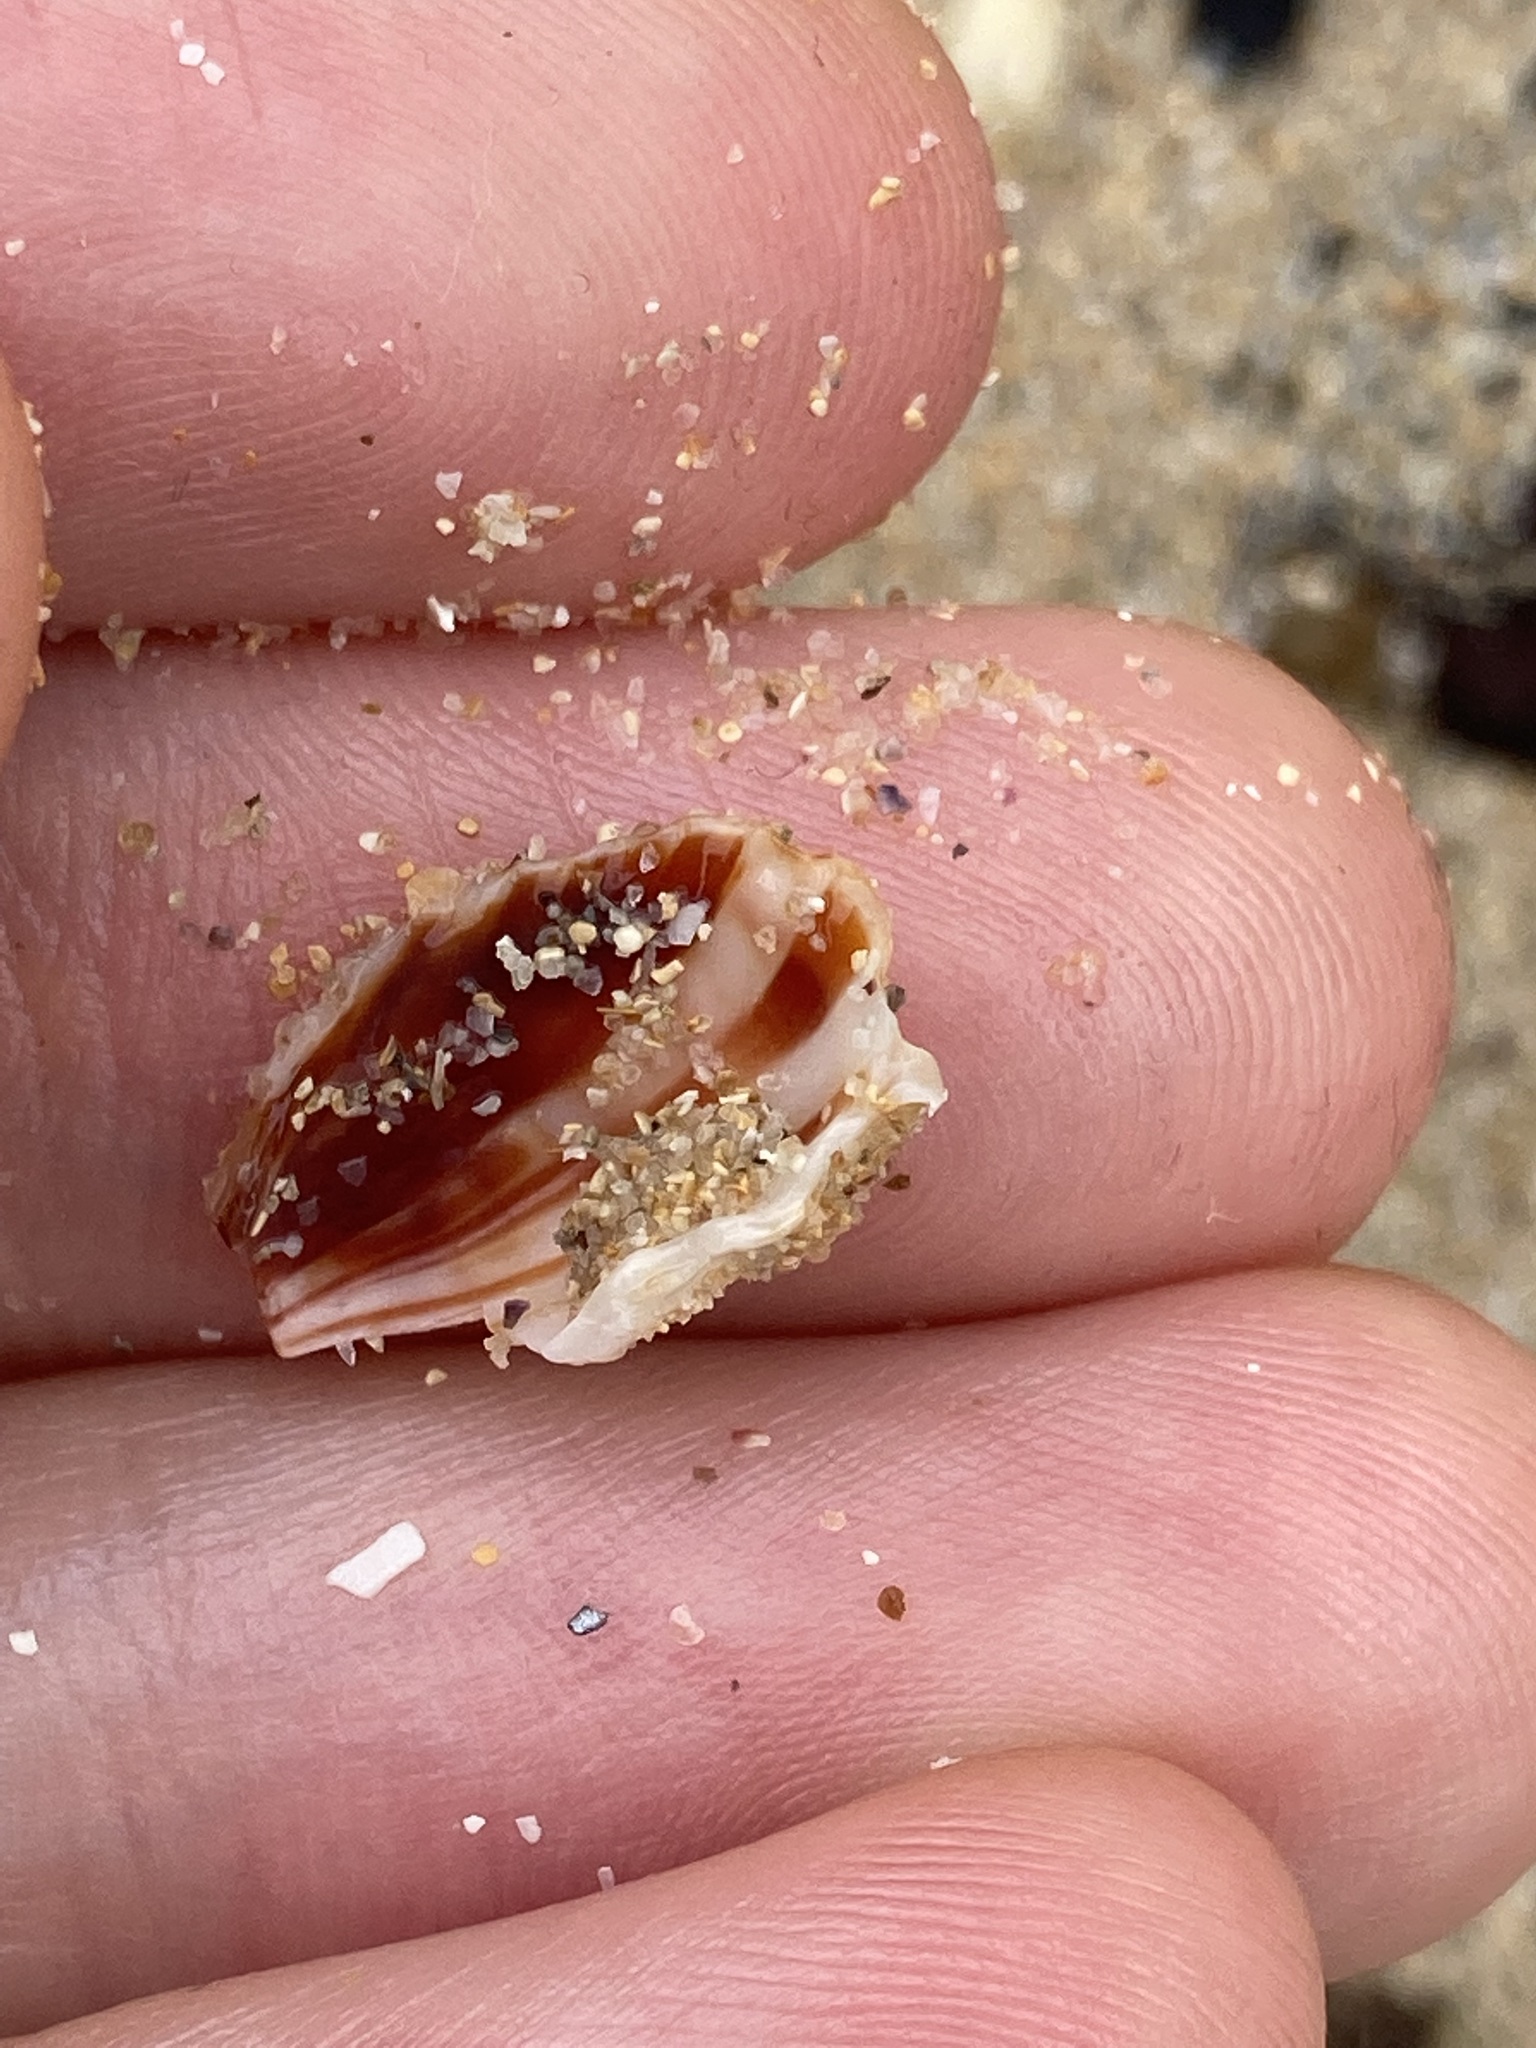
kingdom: Animalia
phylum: Mollusca
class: Bivalvia
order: Carditida
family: Carditidae
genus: Cardita
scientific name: Cardita aviculina
